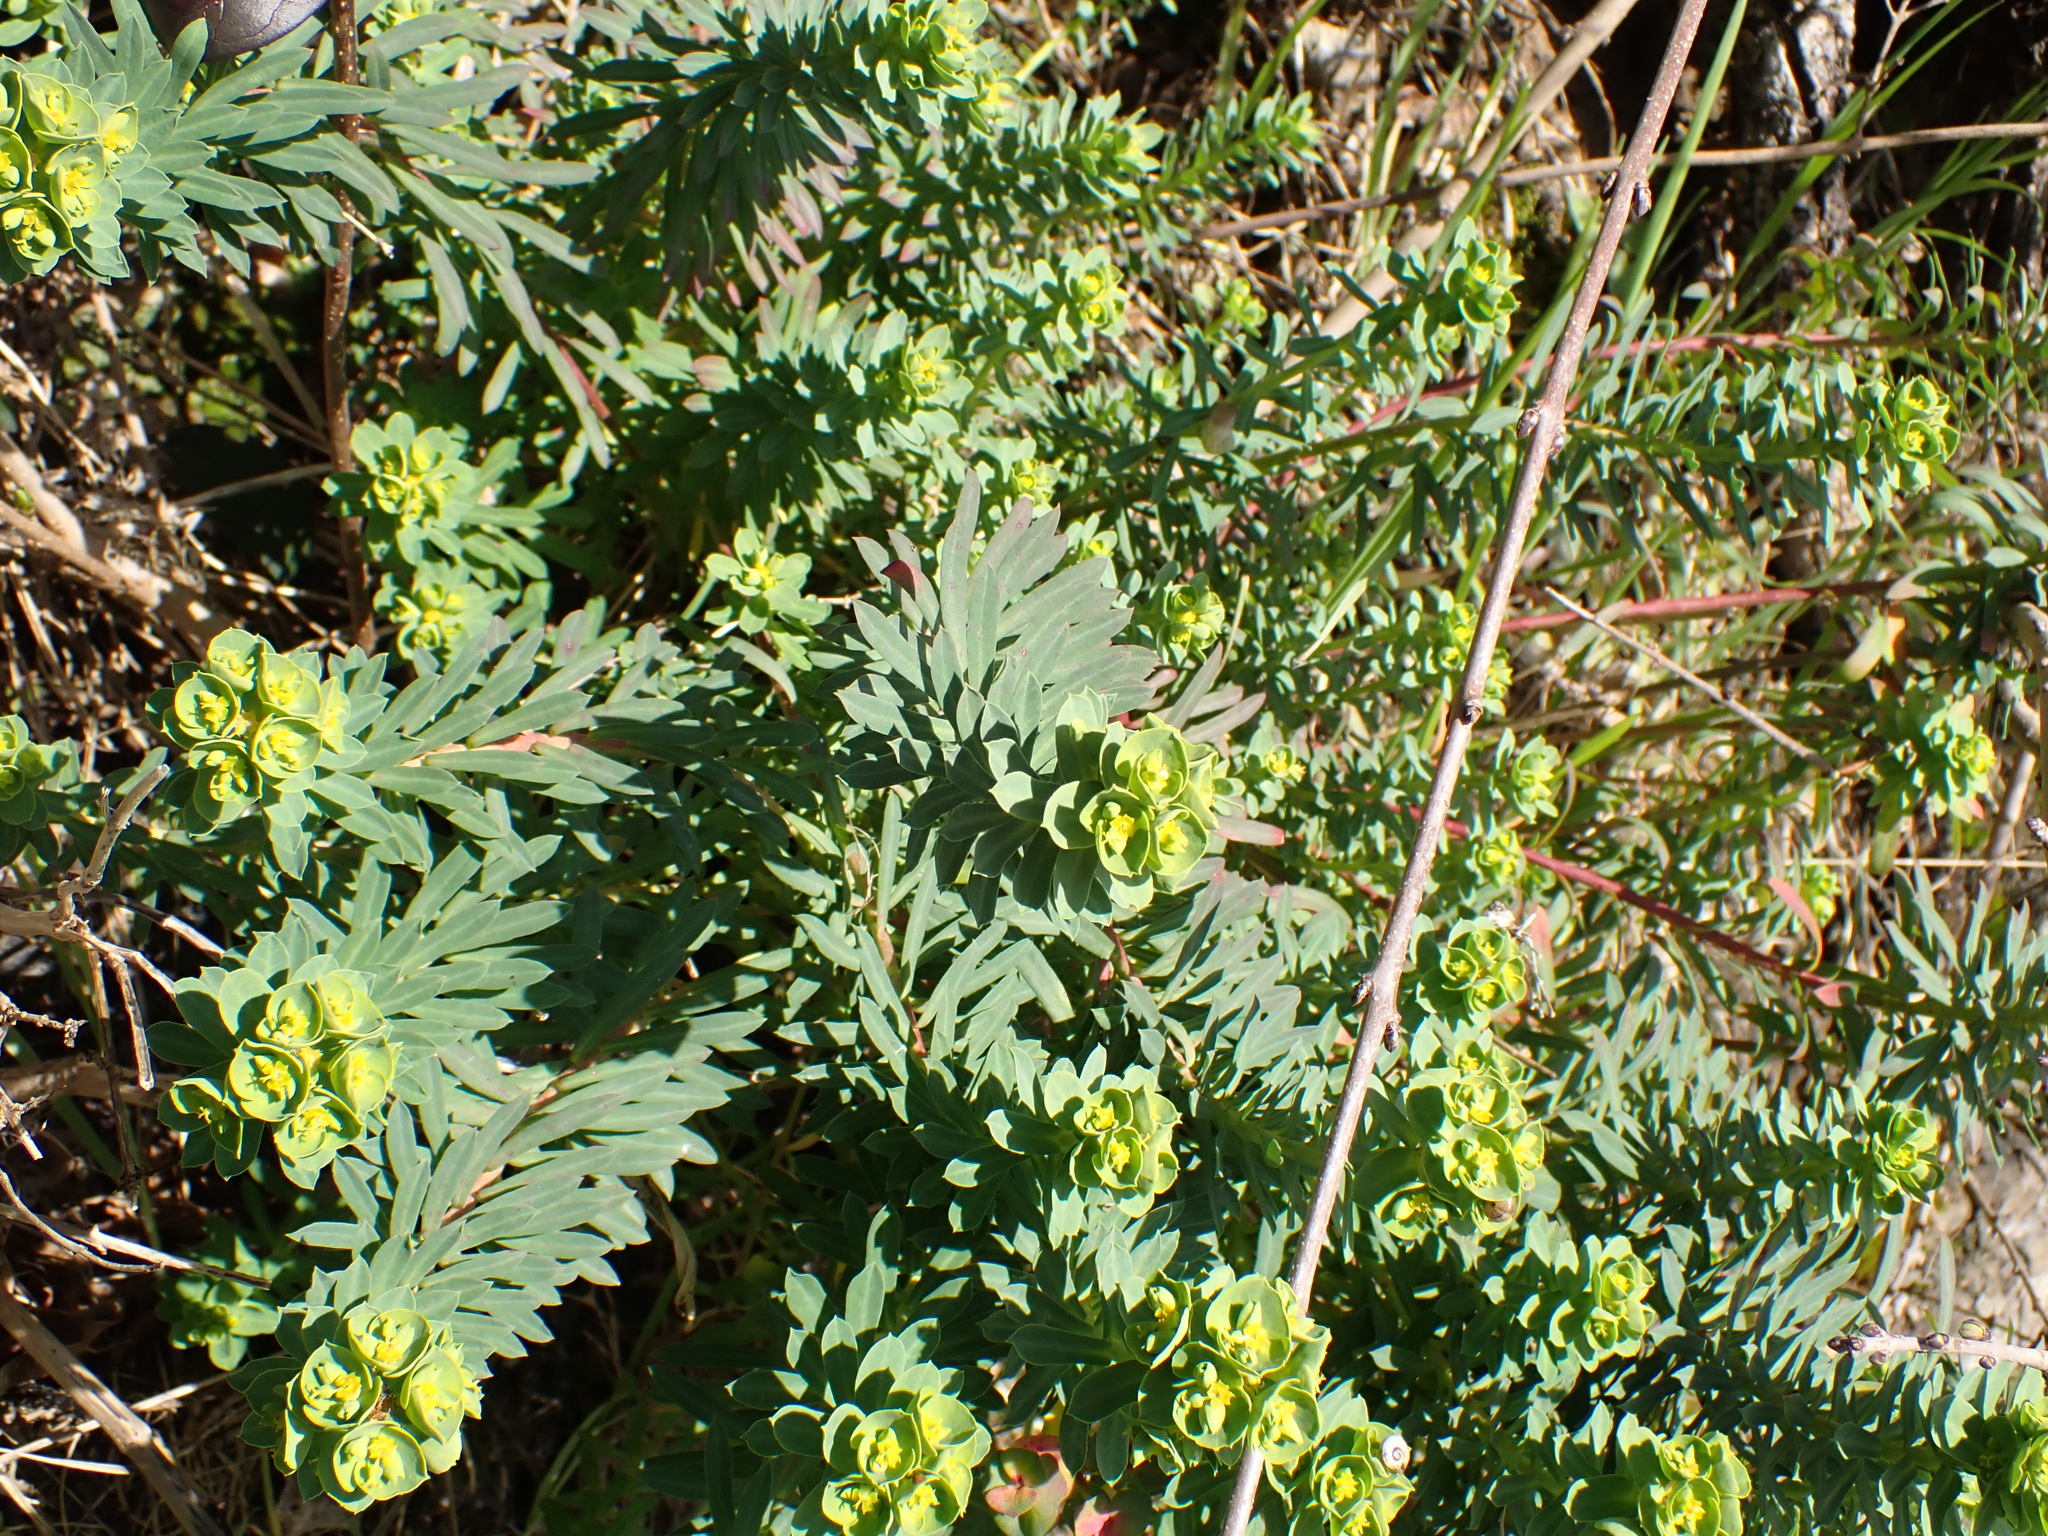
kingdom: Plantae
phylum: Tracheophyta
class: Magnoliopsida
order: Malpighiales
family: Euphorbiaceae
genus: Euphorbia
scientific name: Euphorbia portlandica
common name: Portland spurge
